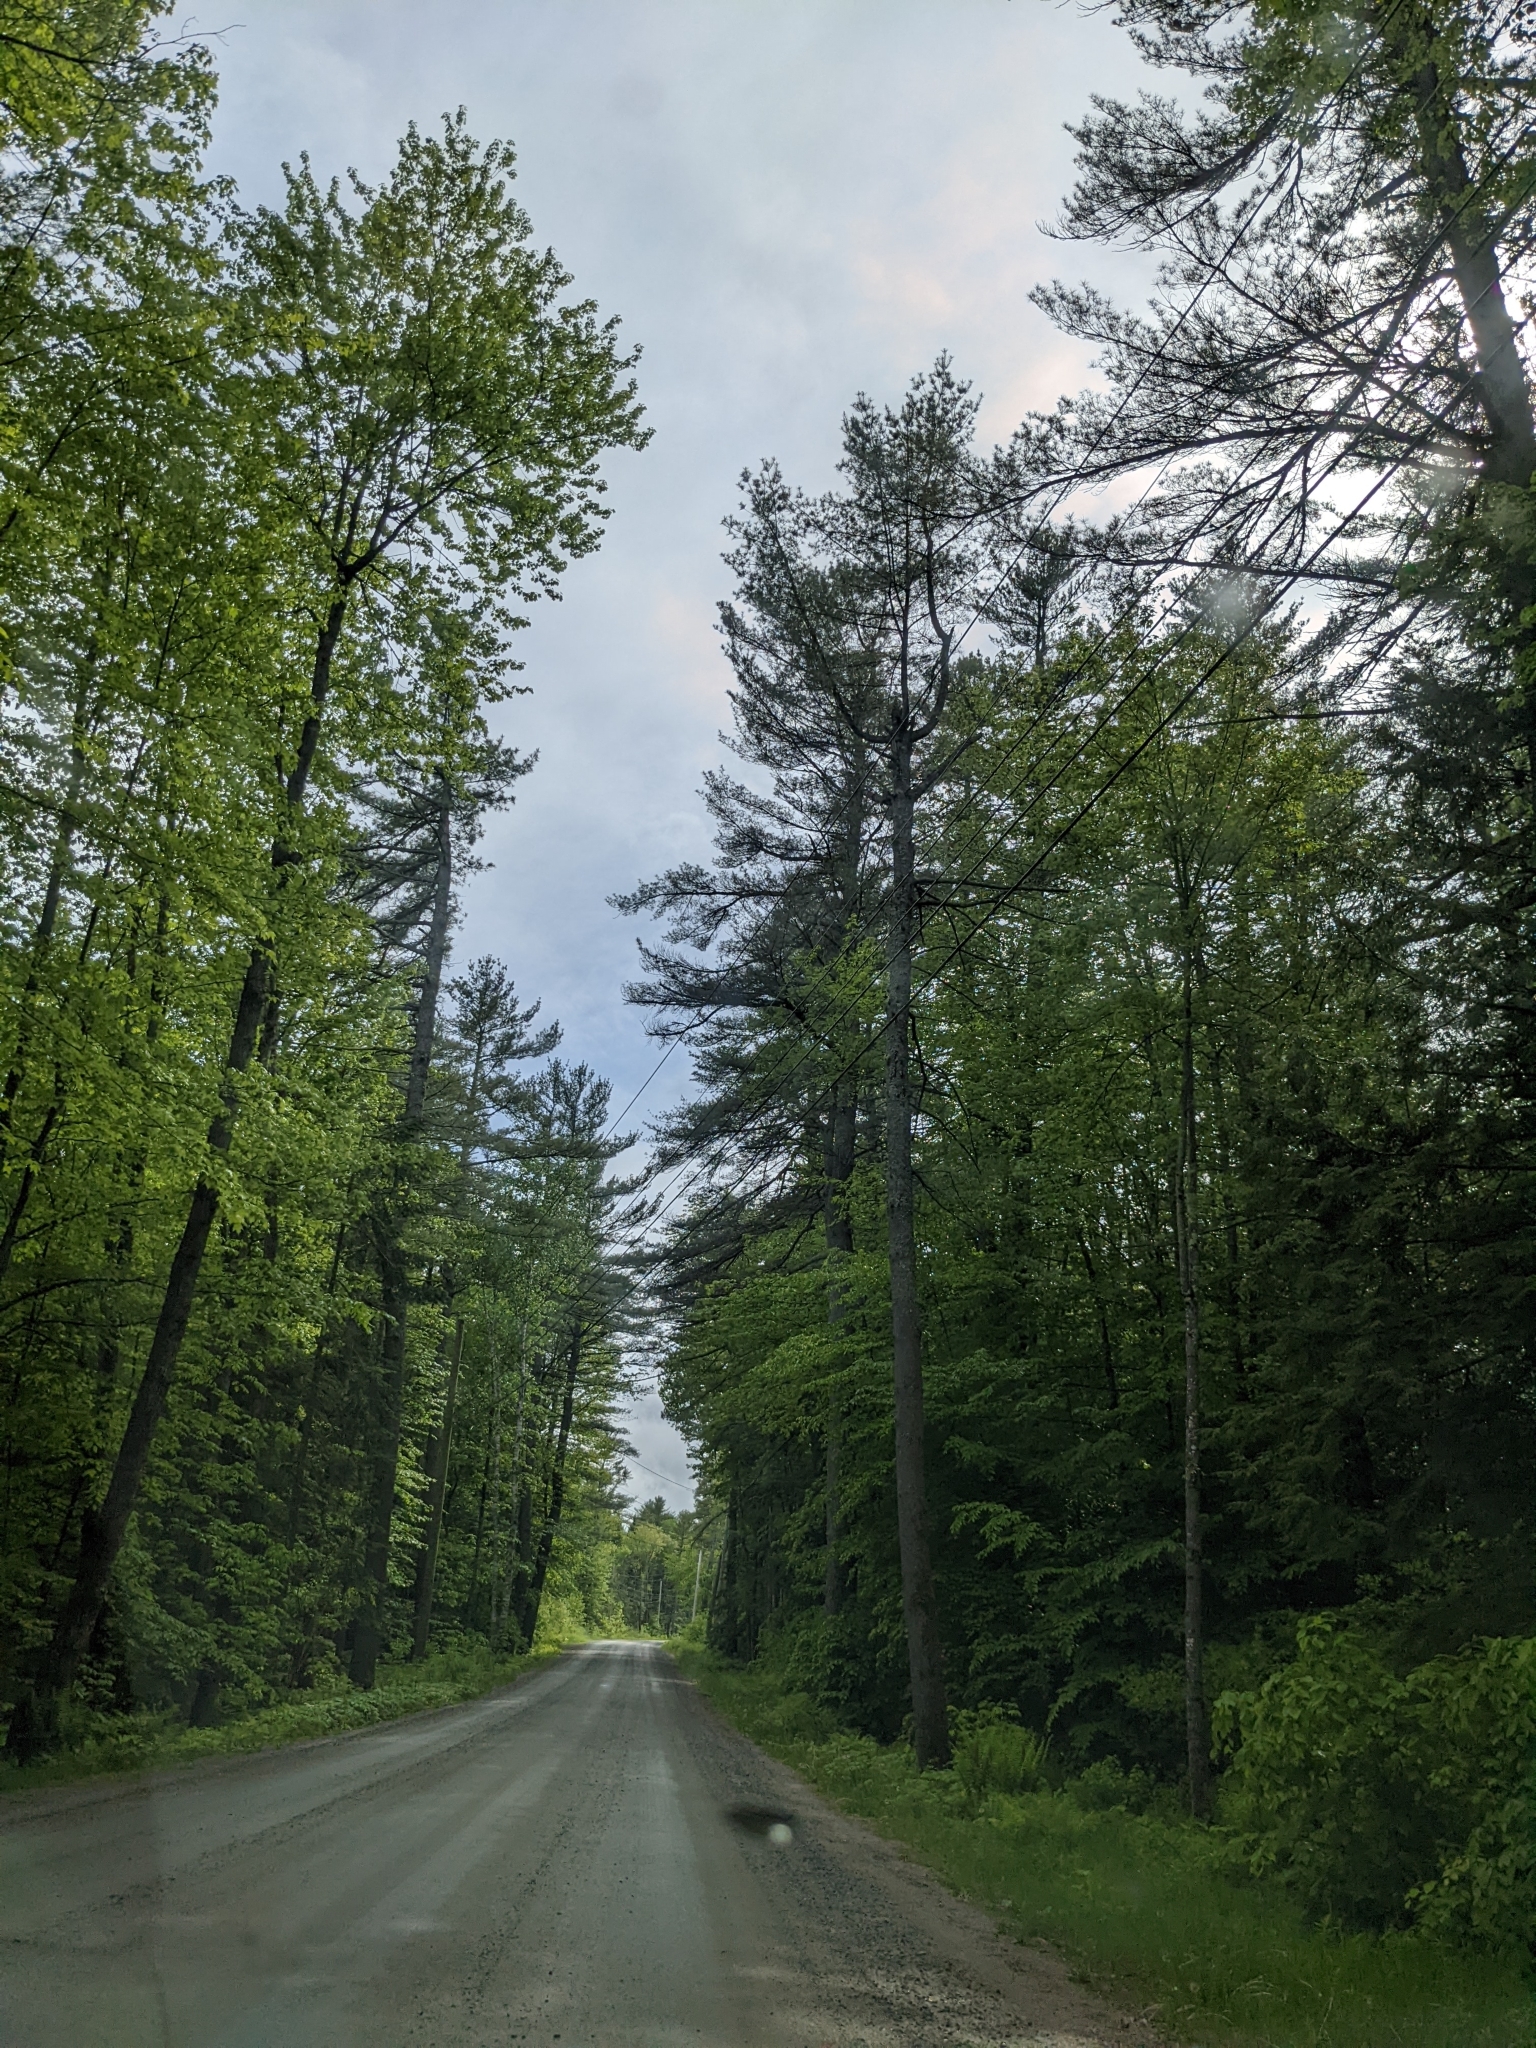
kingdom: Plantae
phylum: Tracheophyta
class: Pinopsida
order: Pinales
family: Pinaceae
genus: Pinus
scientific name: Pinus strobus
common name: Weymouth pine
